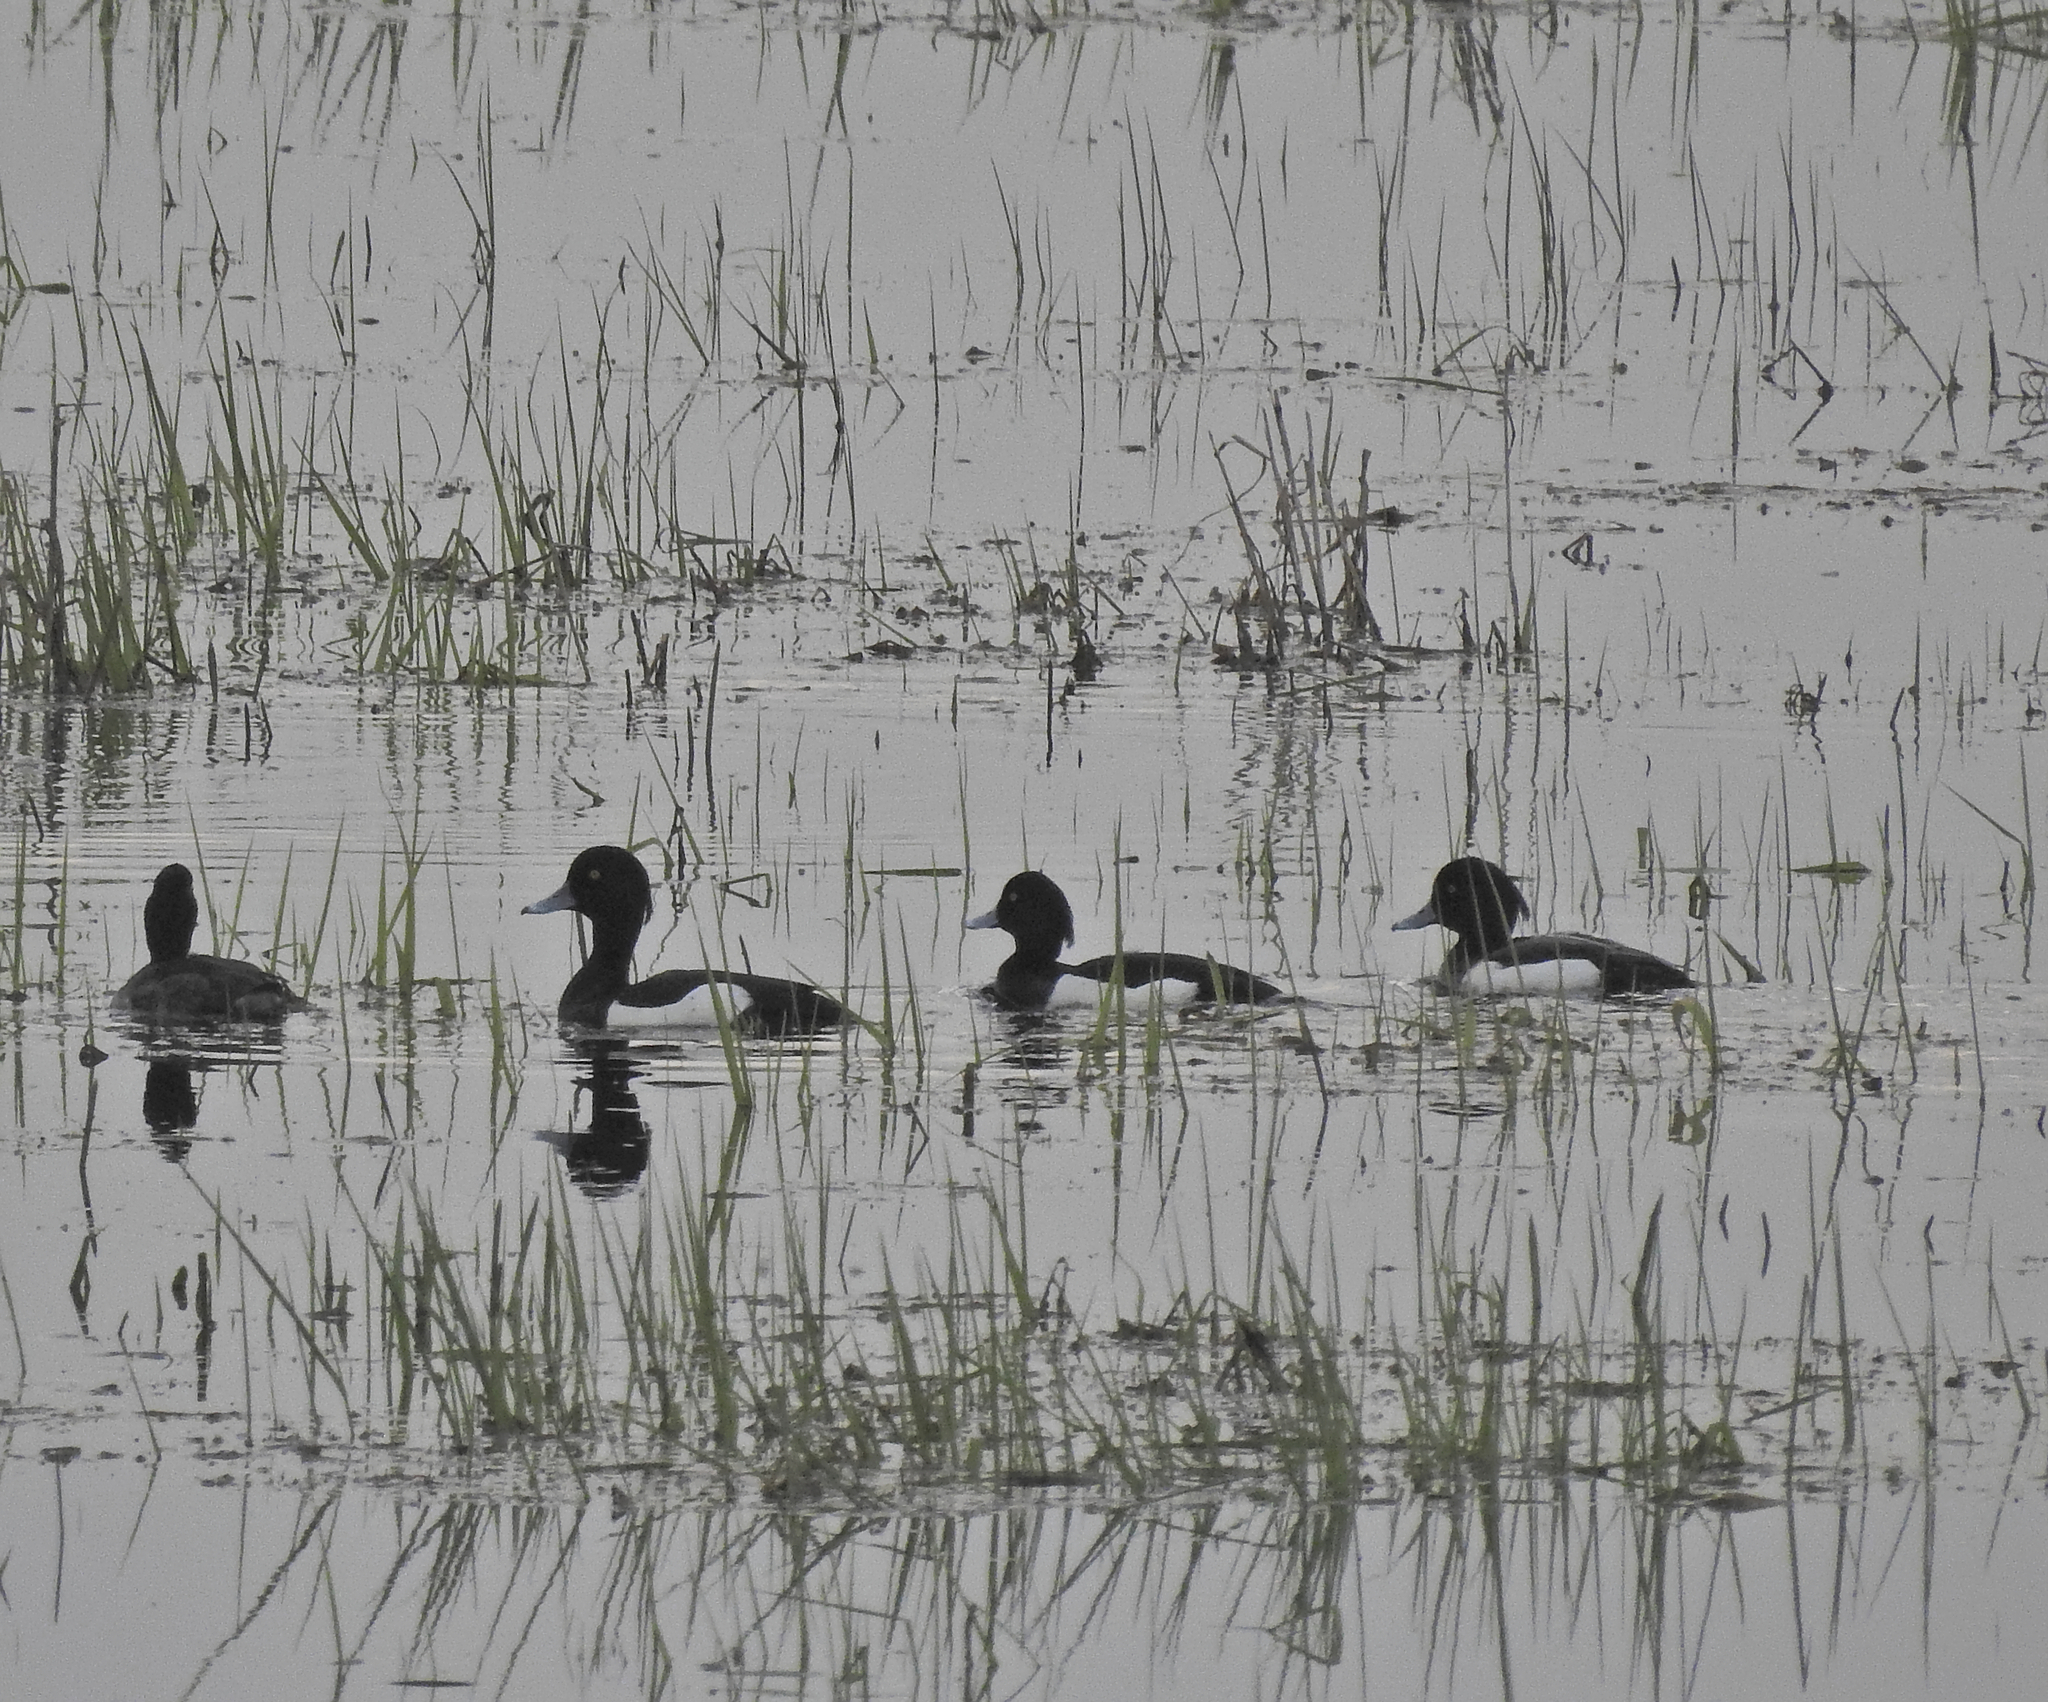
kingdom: Animalia
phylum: Chordata
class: Aves
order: Anseriformes
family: Anatidae
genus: Aythya
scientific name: Aythya fuligula
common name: Tufted duck
